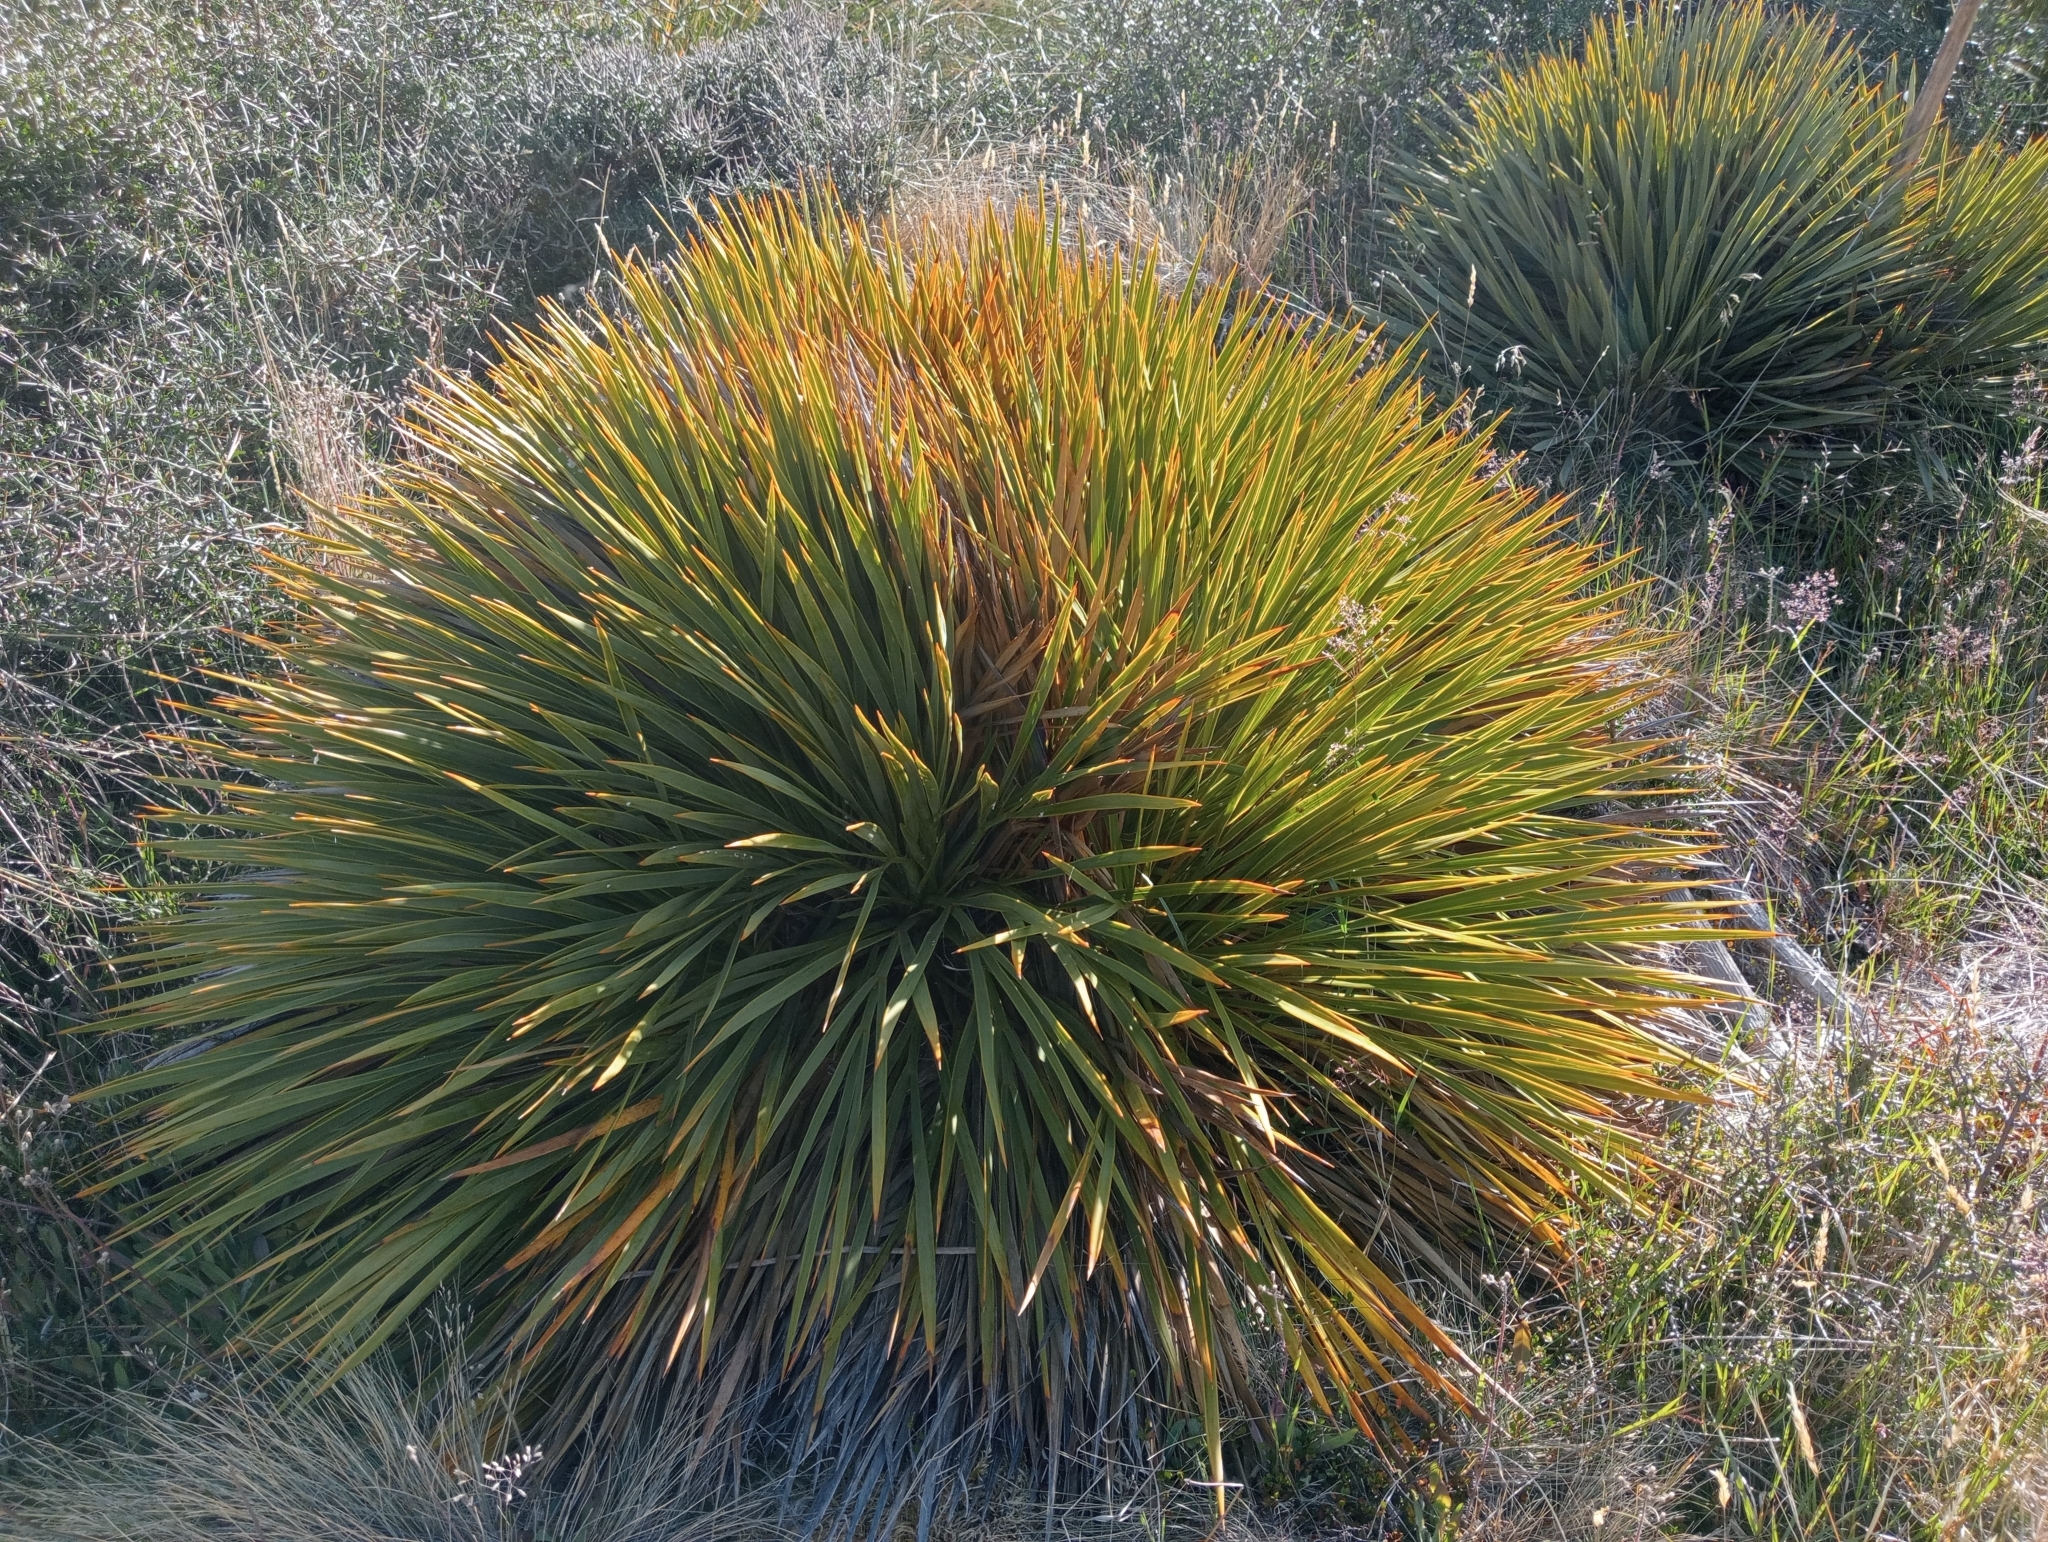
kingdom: Plantae
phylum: Tracheophyta
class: Magnoliopsida
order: Apiales
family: Apiaceae
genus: Aciphylla
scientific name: Aciphylla aurea
